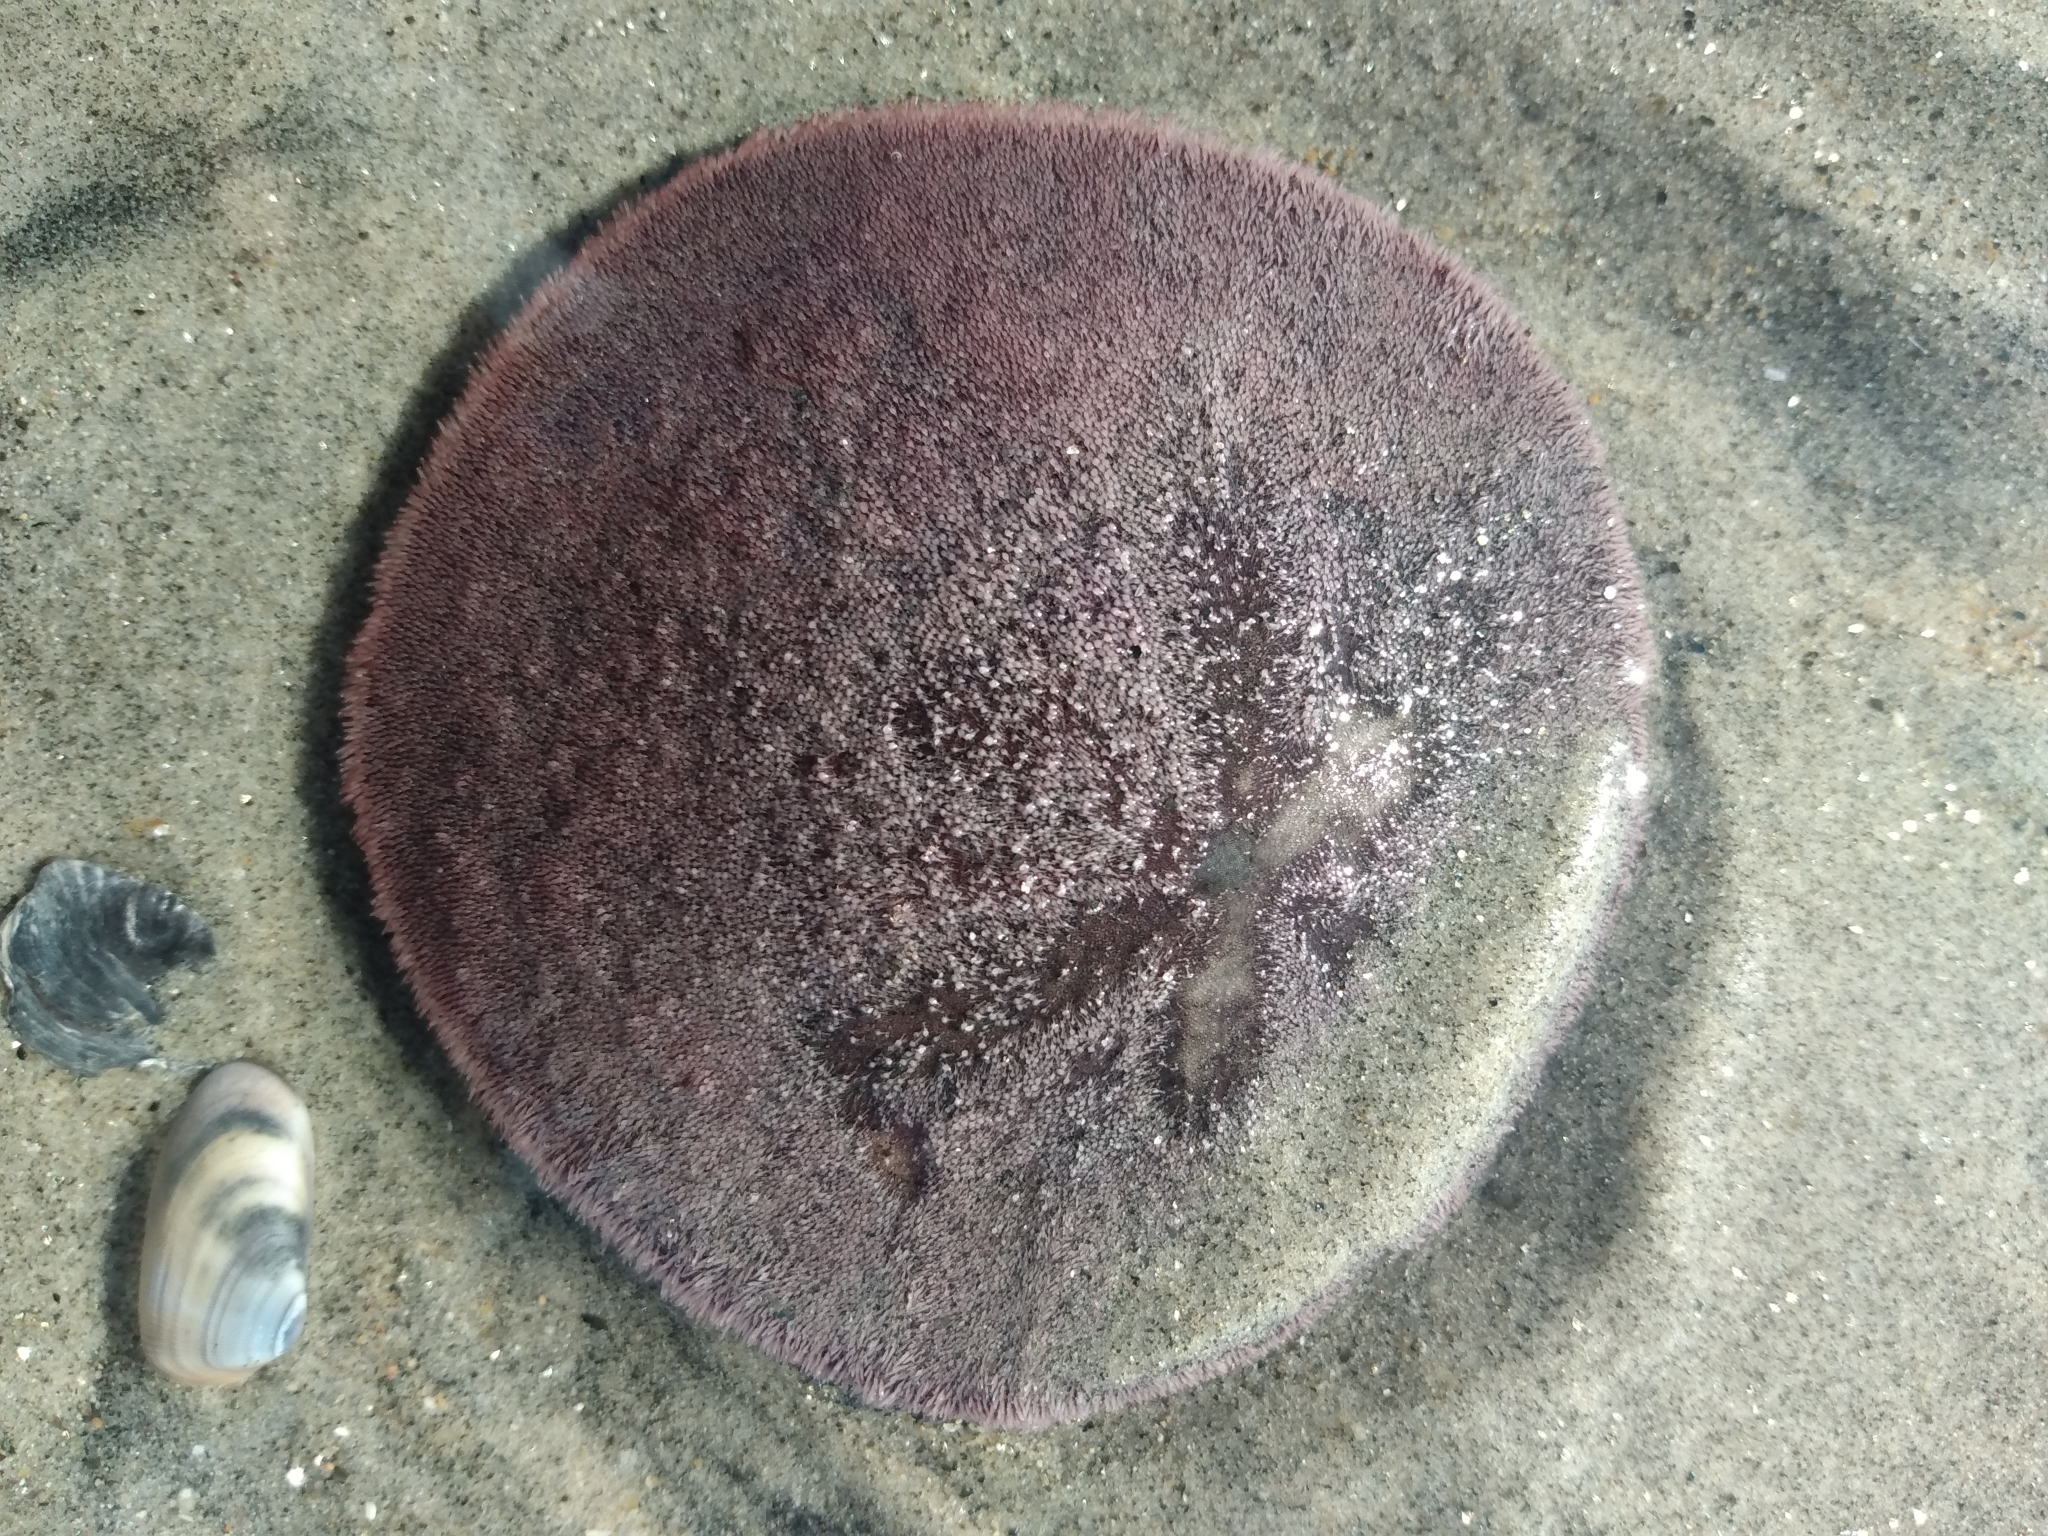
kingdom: Animalia
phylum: Echinodermata
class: Echinoidea
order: Echinolampadacea
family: Dendrasteridae
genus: Dendraster
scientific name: Dendraster excentricus
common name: Eccentric sand dollar sea urchin
